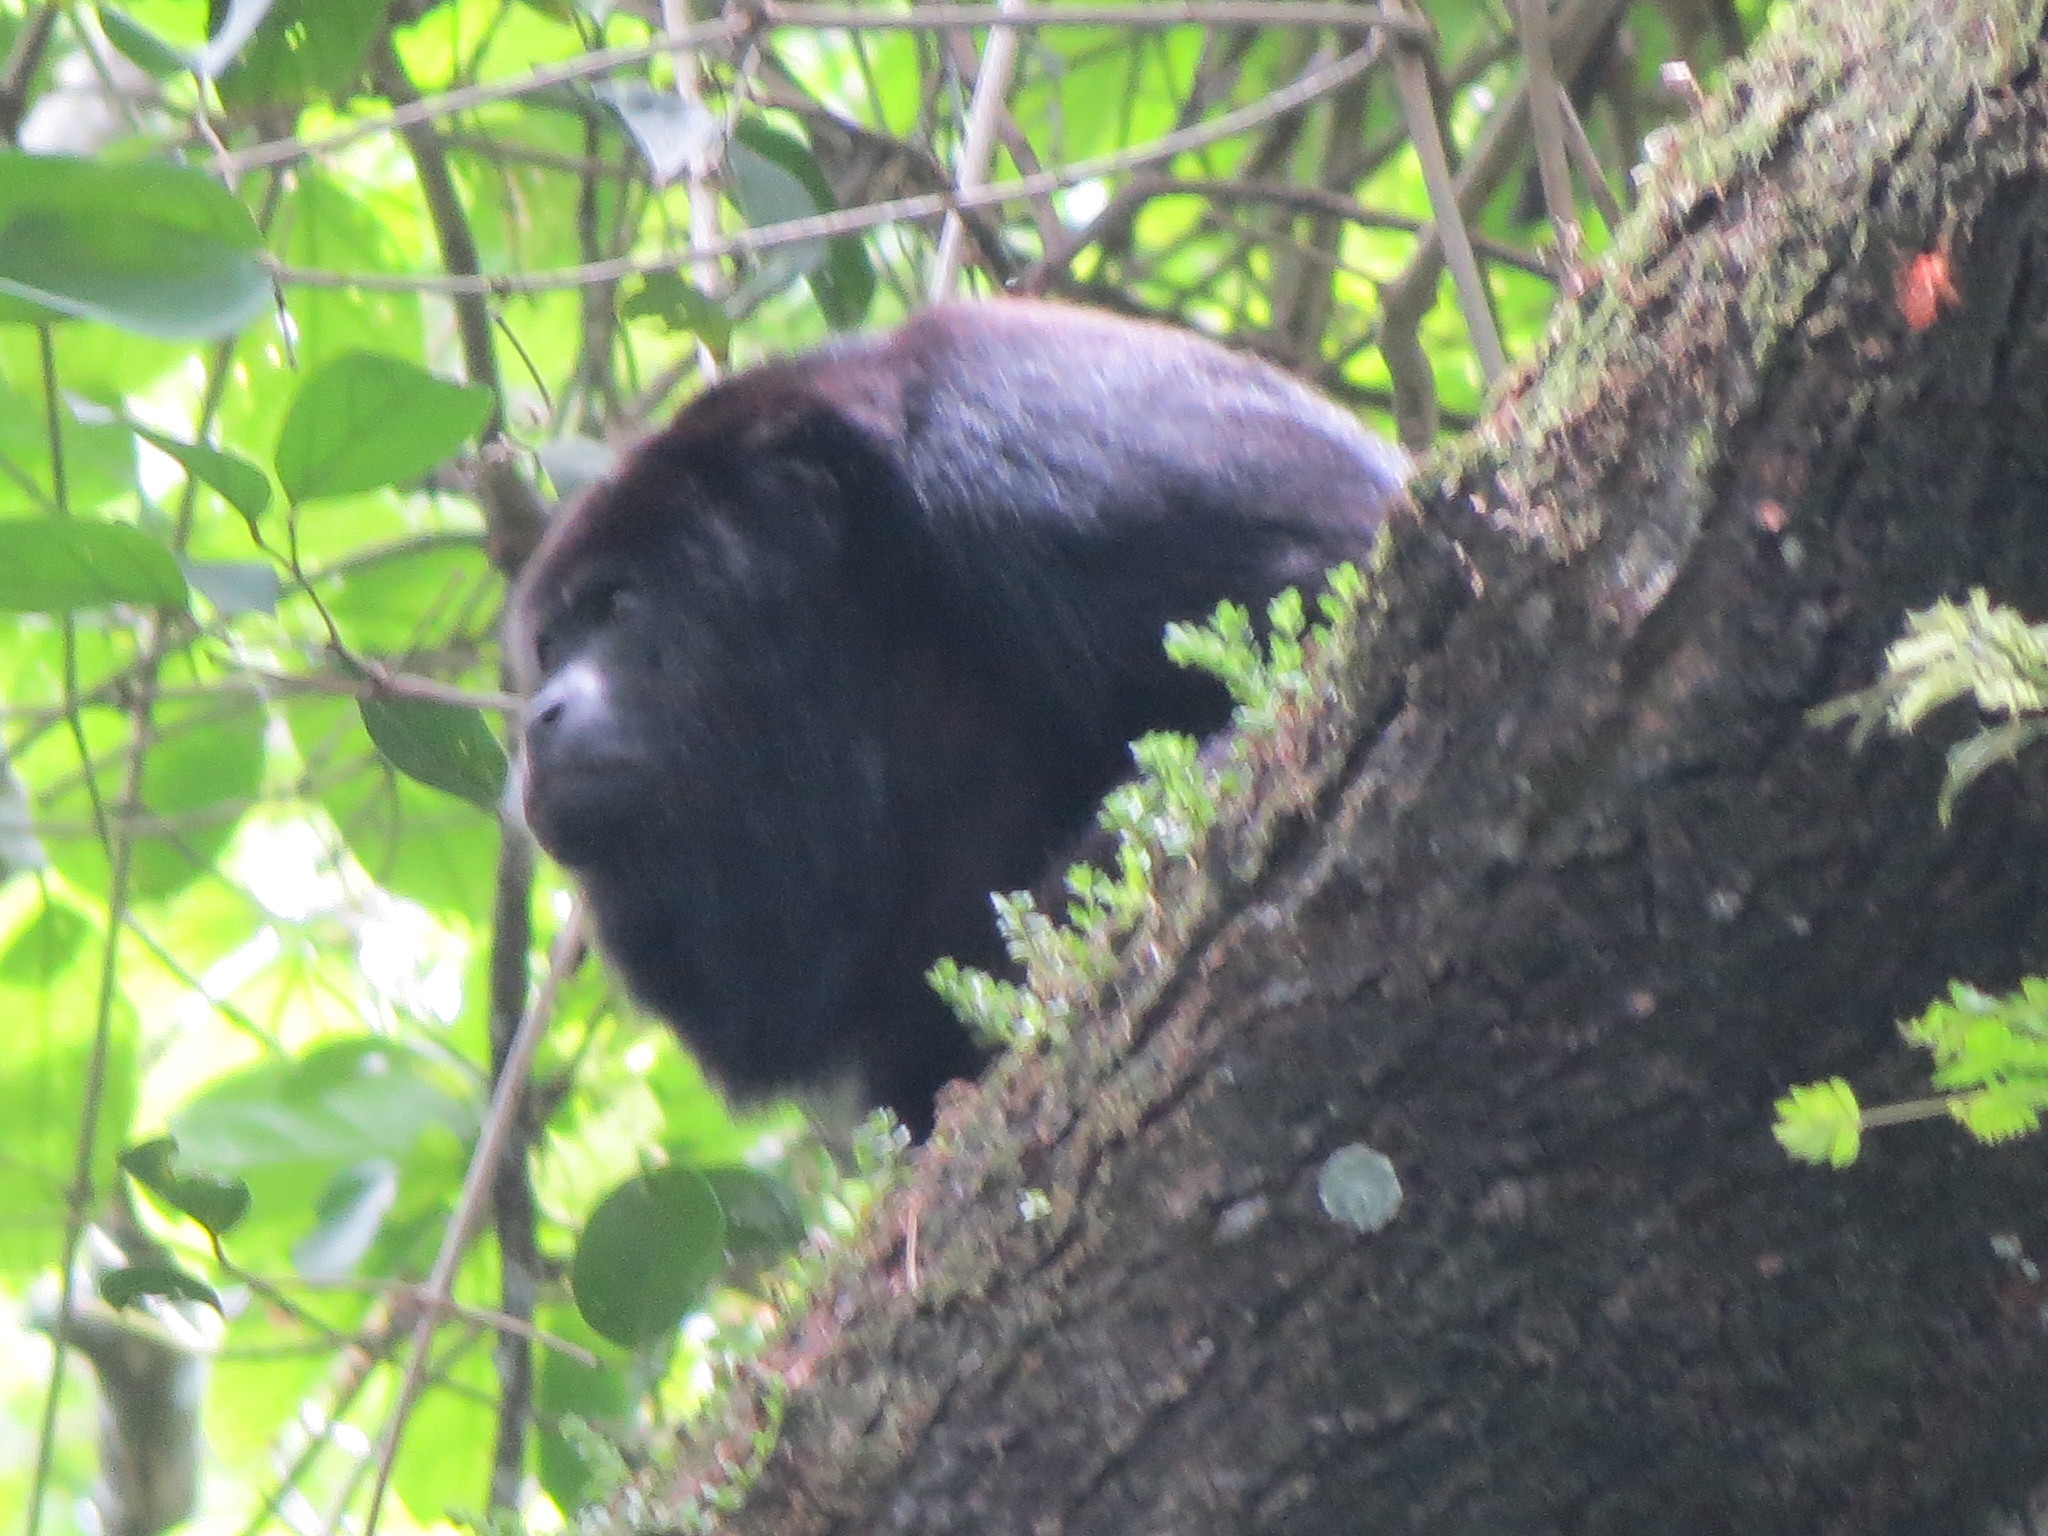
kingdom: Animalia
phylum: Chordata
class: Mammalia
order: Primates
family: Atelidae
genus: Alouatta
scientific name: Alouatta pigra
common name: Guatemalan black howler
